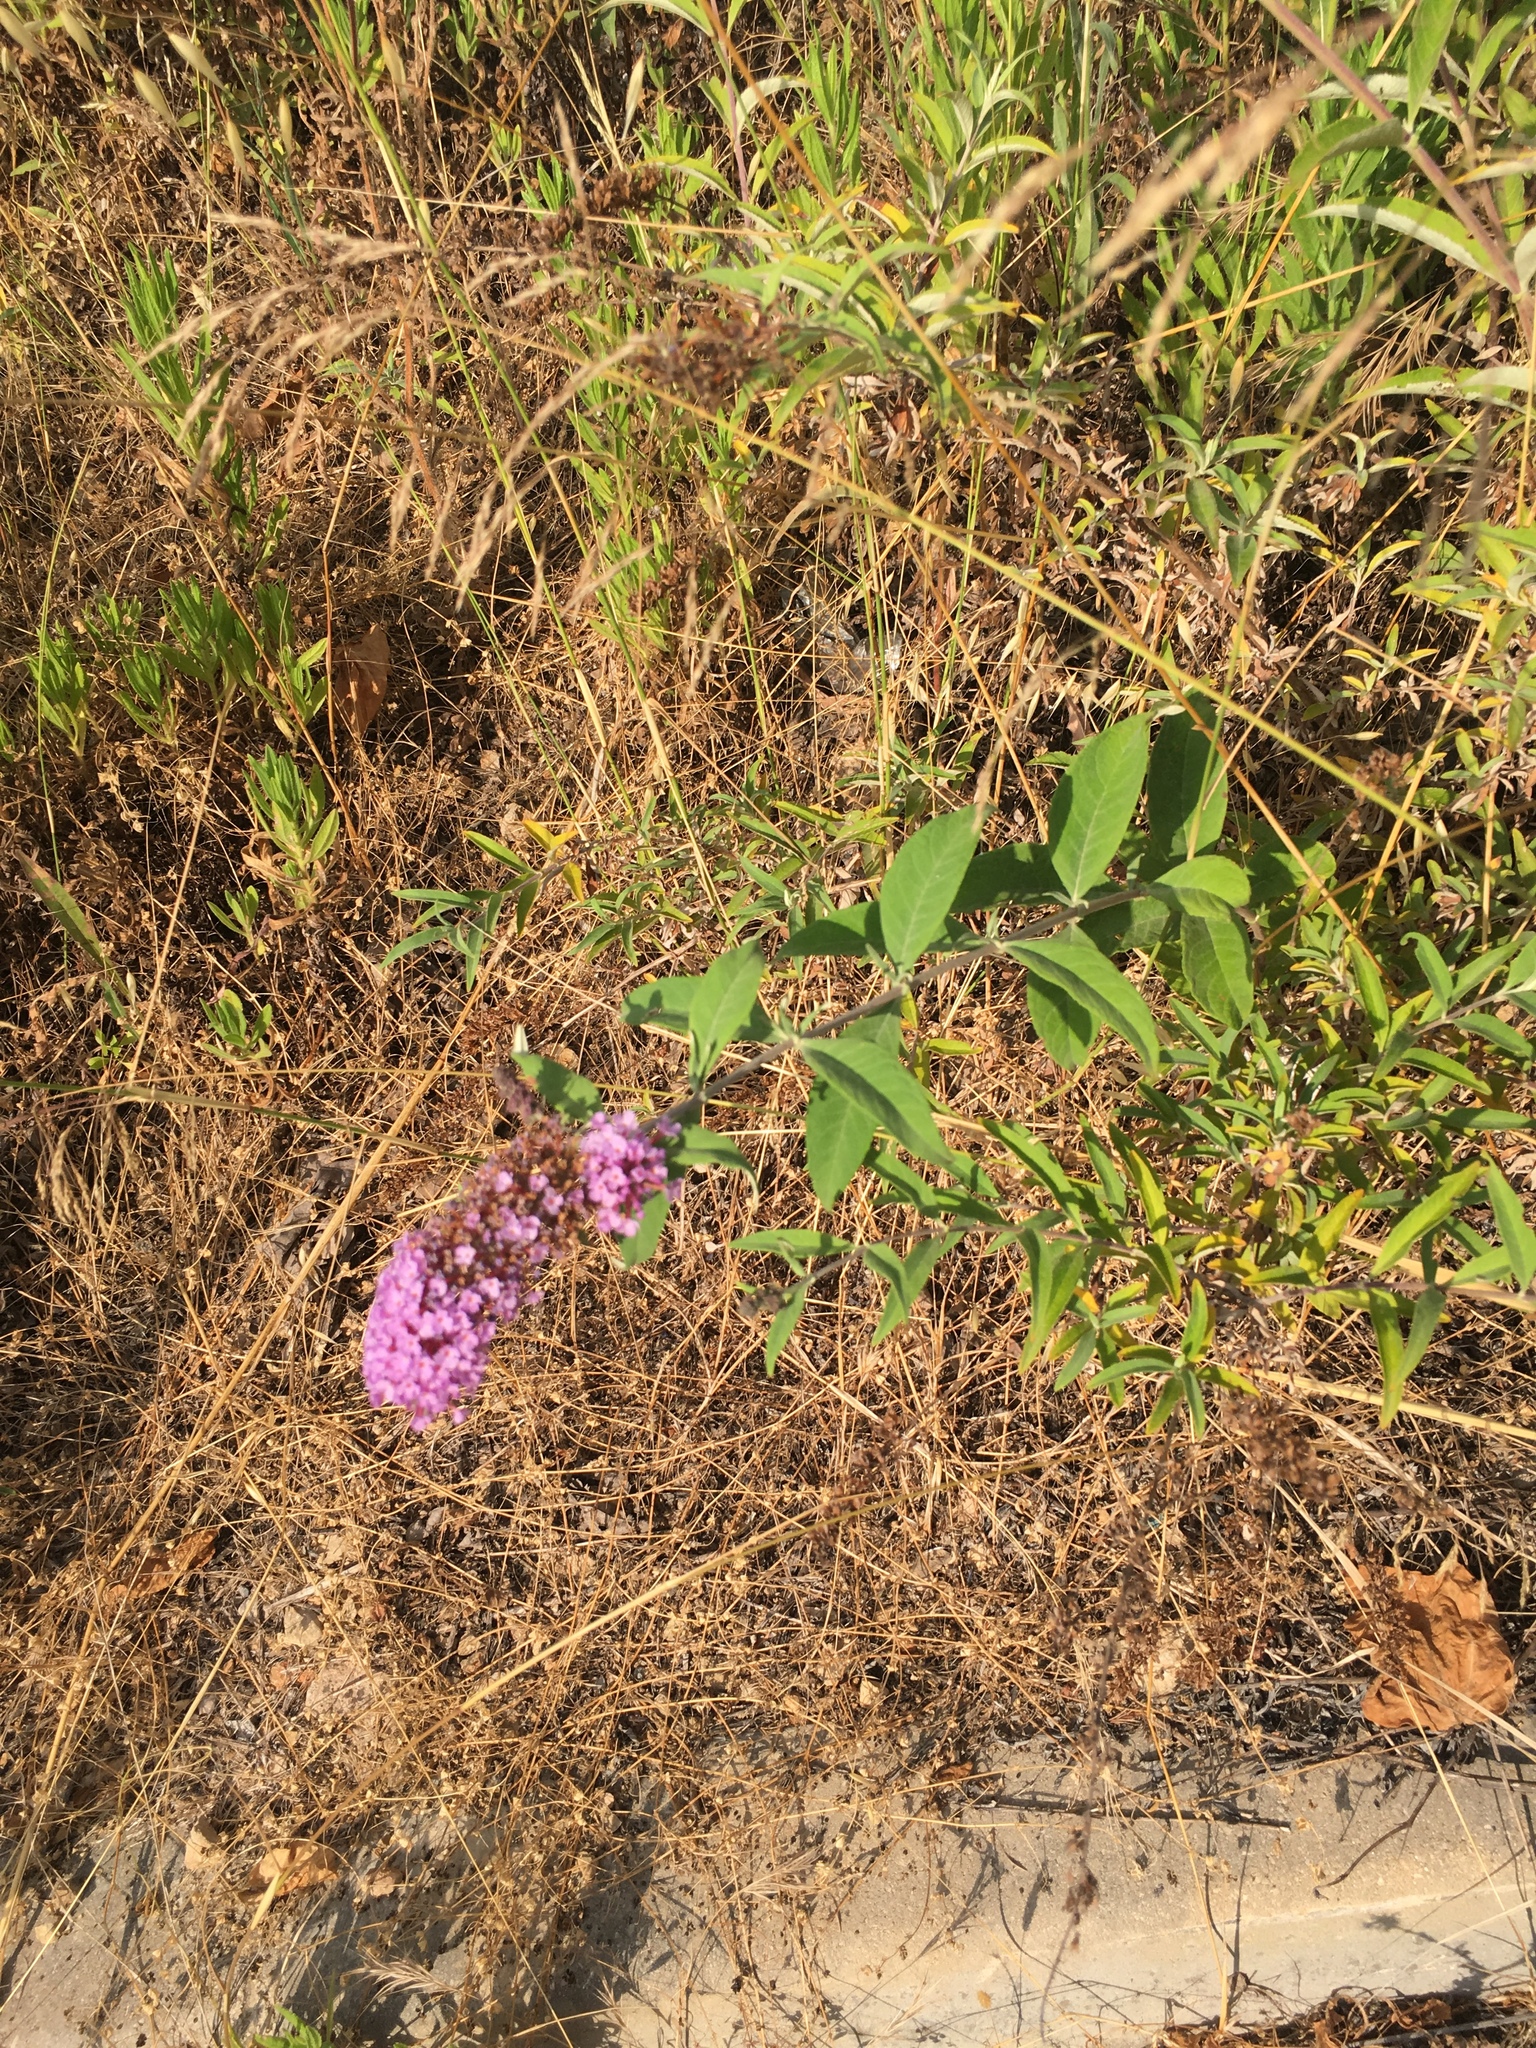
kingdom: Plantae
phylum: Tracheophyta
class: Magnoliopsida
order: Lamiales
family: Scrophulariaceae
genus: Buddleja
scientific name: Buddleja davidii
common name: Butterfly-bush
